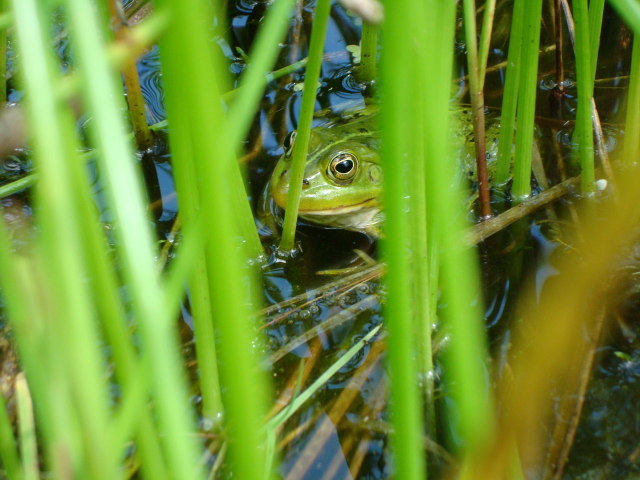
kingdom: Animalia
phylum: Chordata
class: Amphibia
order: Anura
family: Ranidae
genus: Pelophylax
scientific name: Pelophylax lessonae
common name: Pool frog
